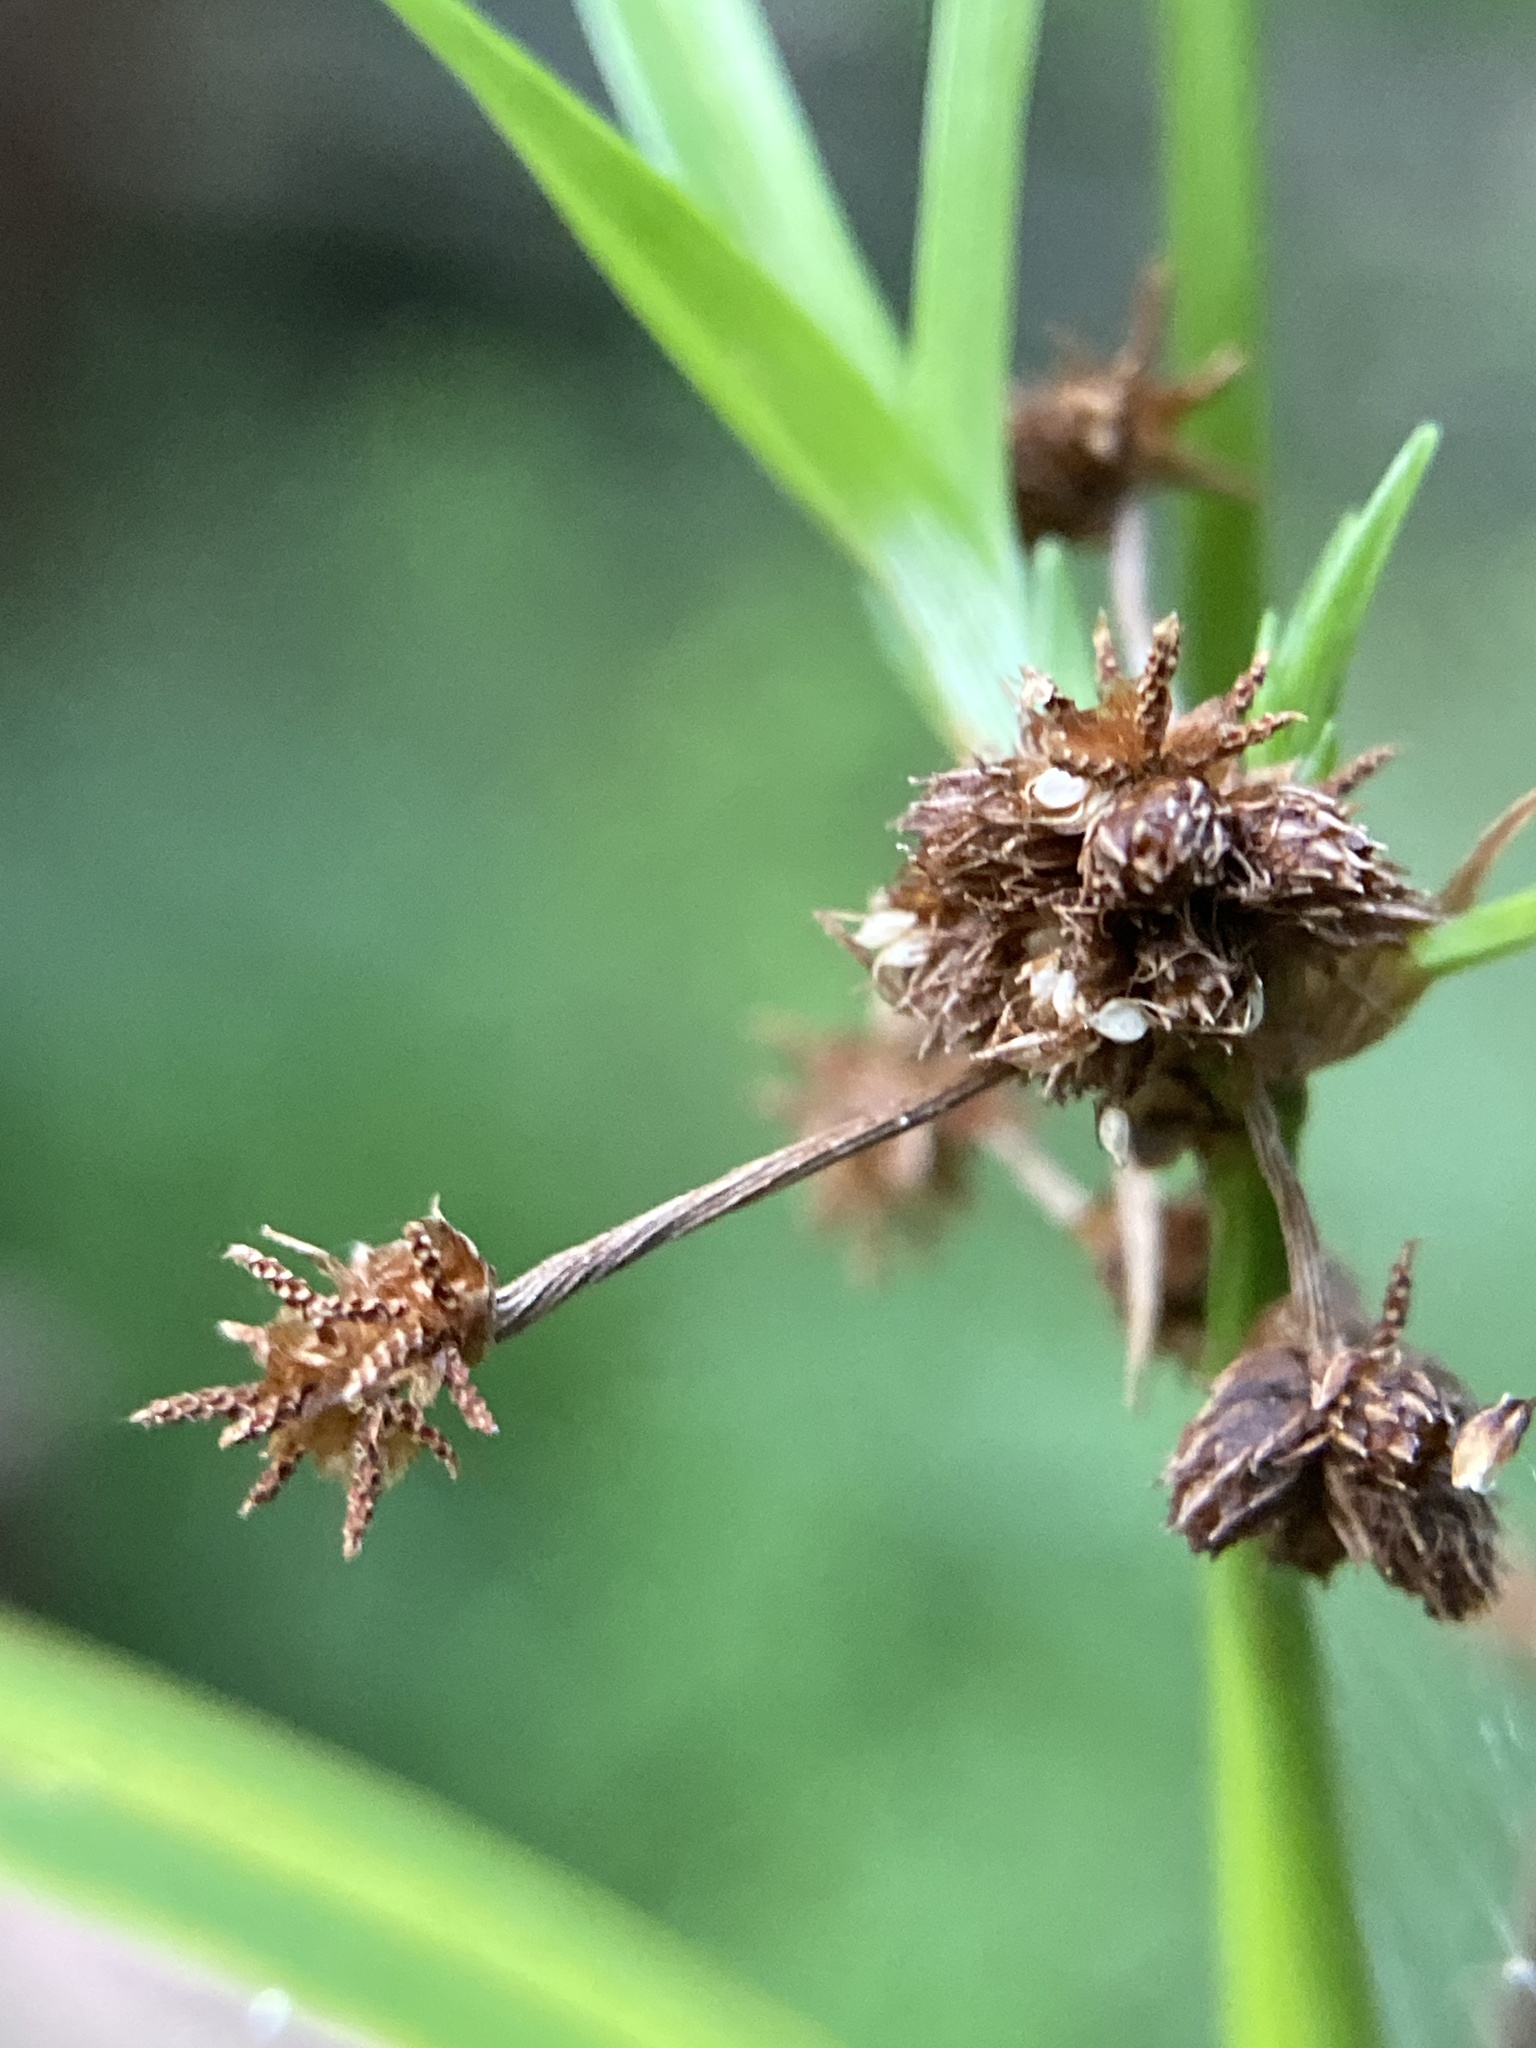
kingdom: Plantae
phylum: Tracheophyta
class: Liliopsida
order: Poales
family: Cyperaceae
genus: Scirpus
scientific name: Scirpus atrovirens
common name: Black bulrush
